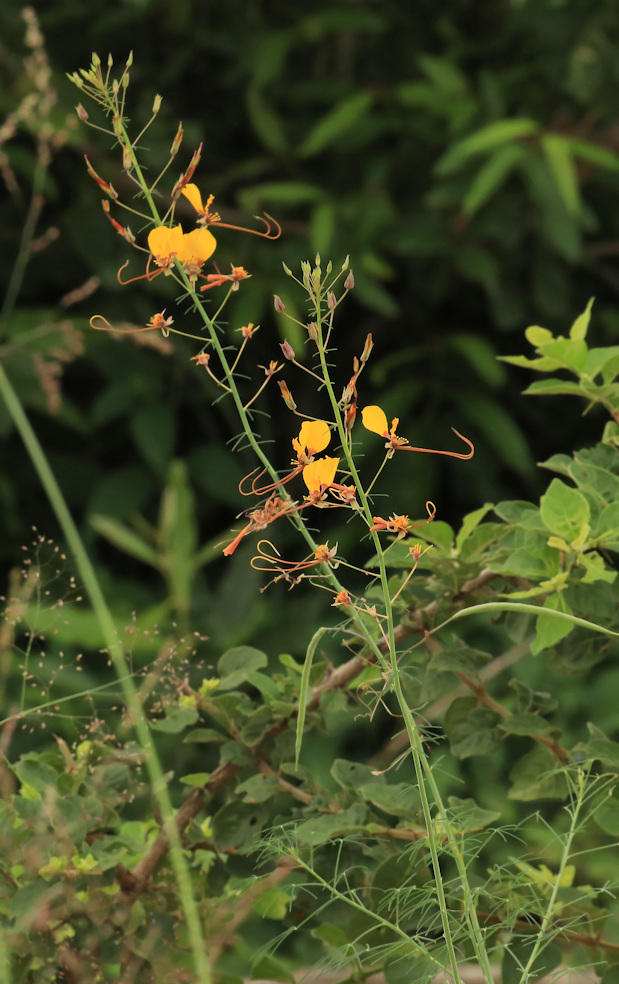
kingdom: Plantae
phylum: Tracheophyta
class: Magnoliopsida
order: Brassicales
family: Cleomaceae
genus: Coalisina
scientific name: Coalisina
